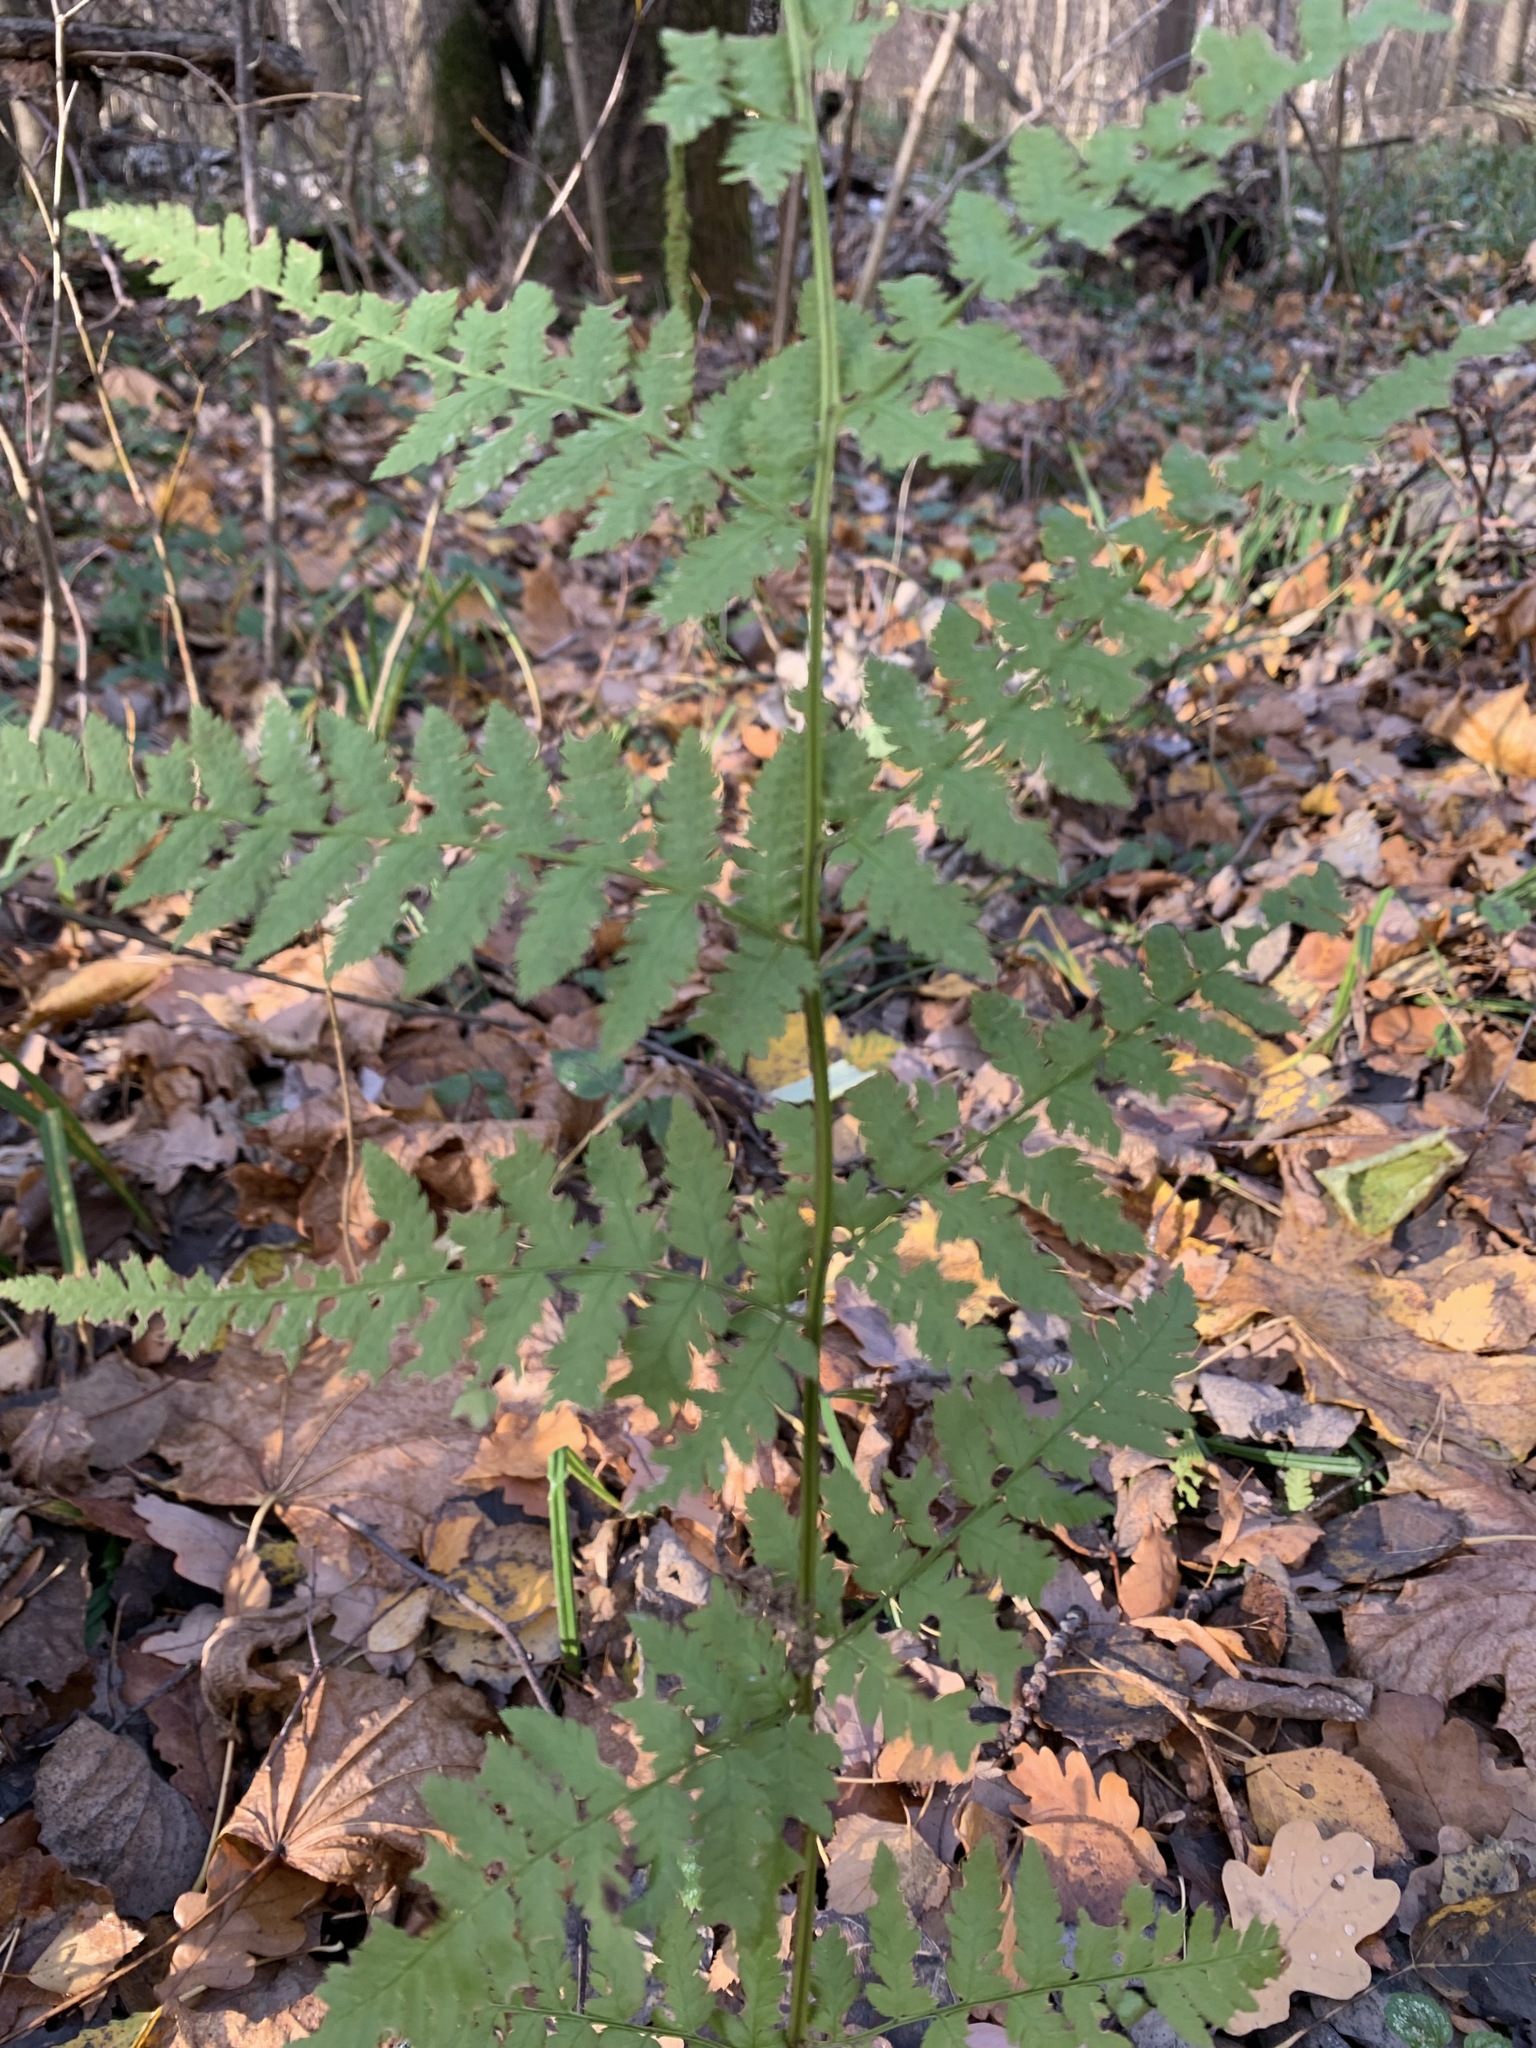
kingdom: Plantae
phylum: Tracheophyta
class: Polypodiopsida
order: Polypodiales
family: Dryopteridaceae
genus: Dryopteris
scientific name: Dryopteris carthusiana
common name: Narrow buckler-fern
